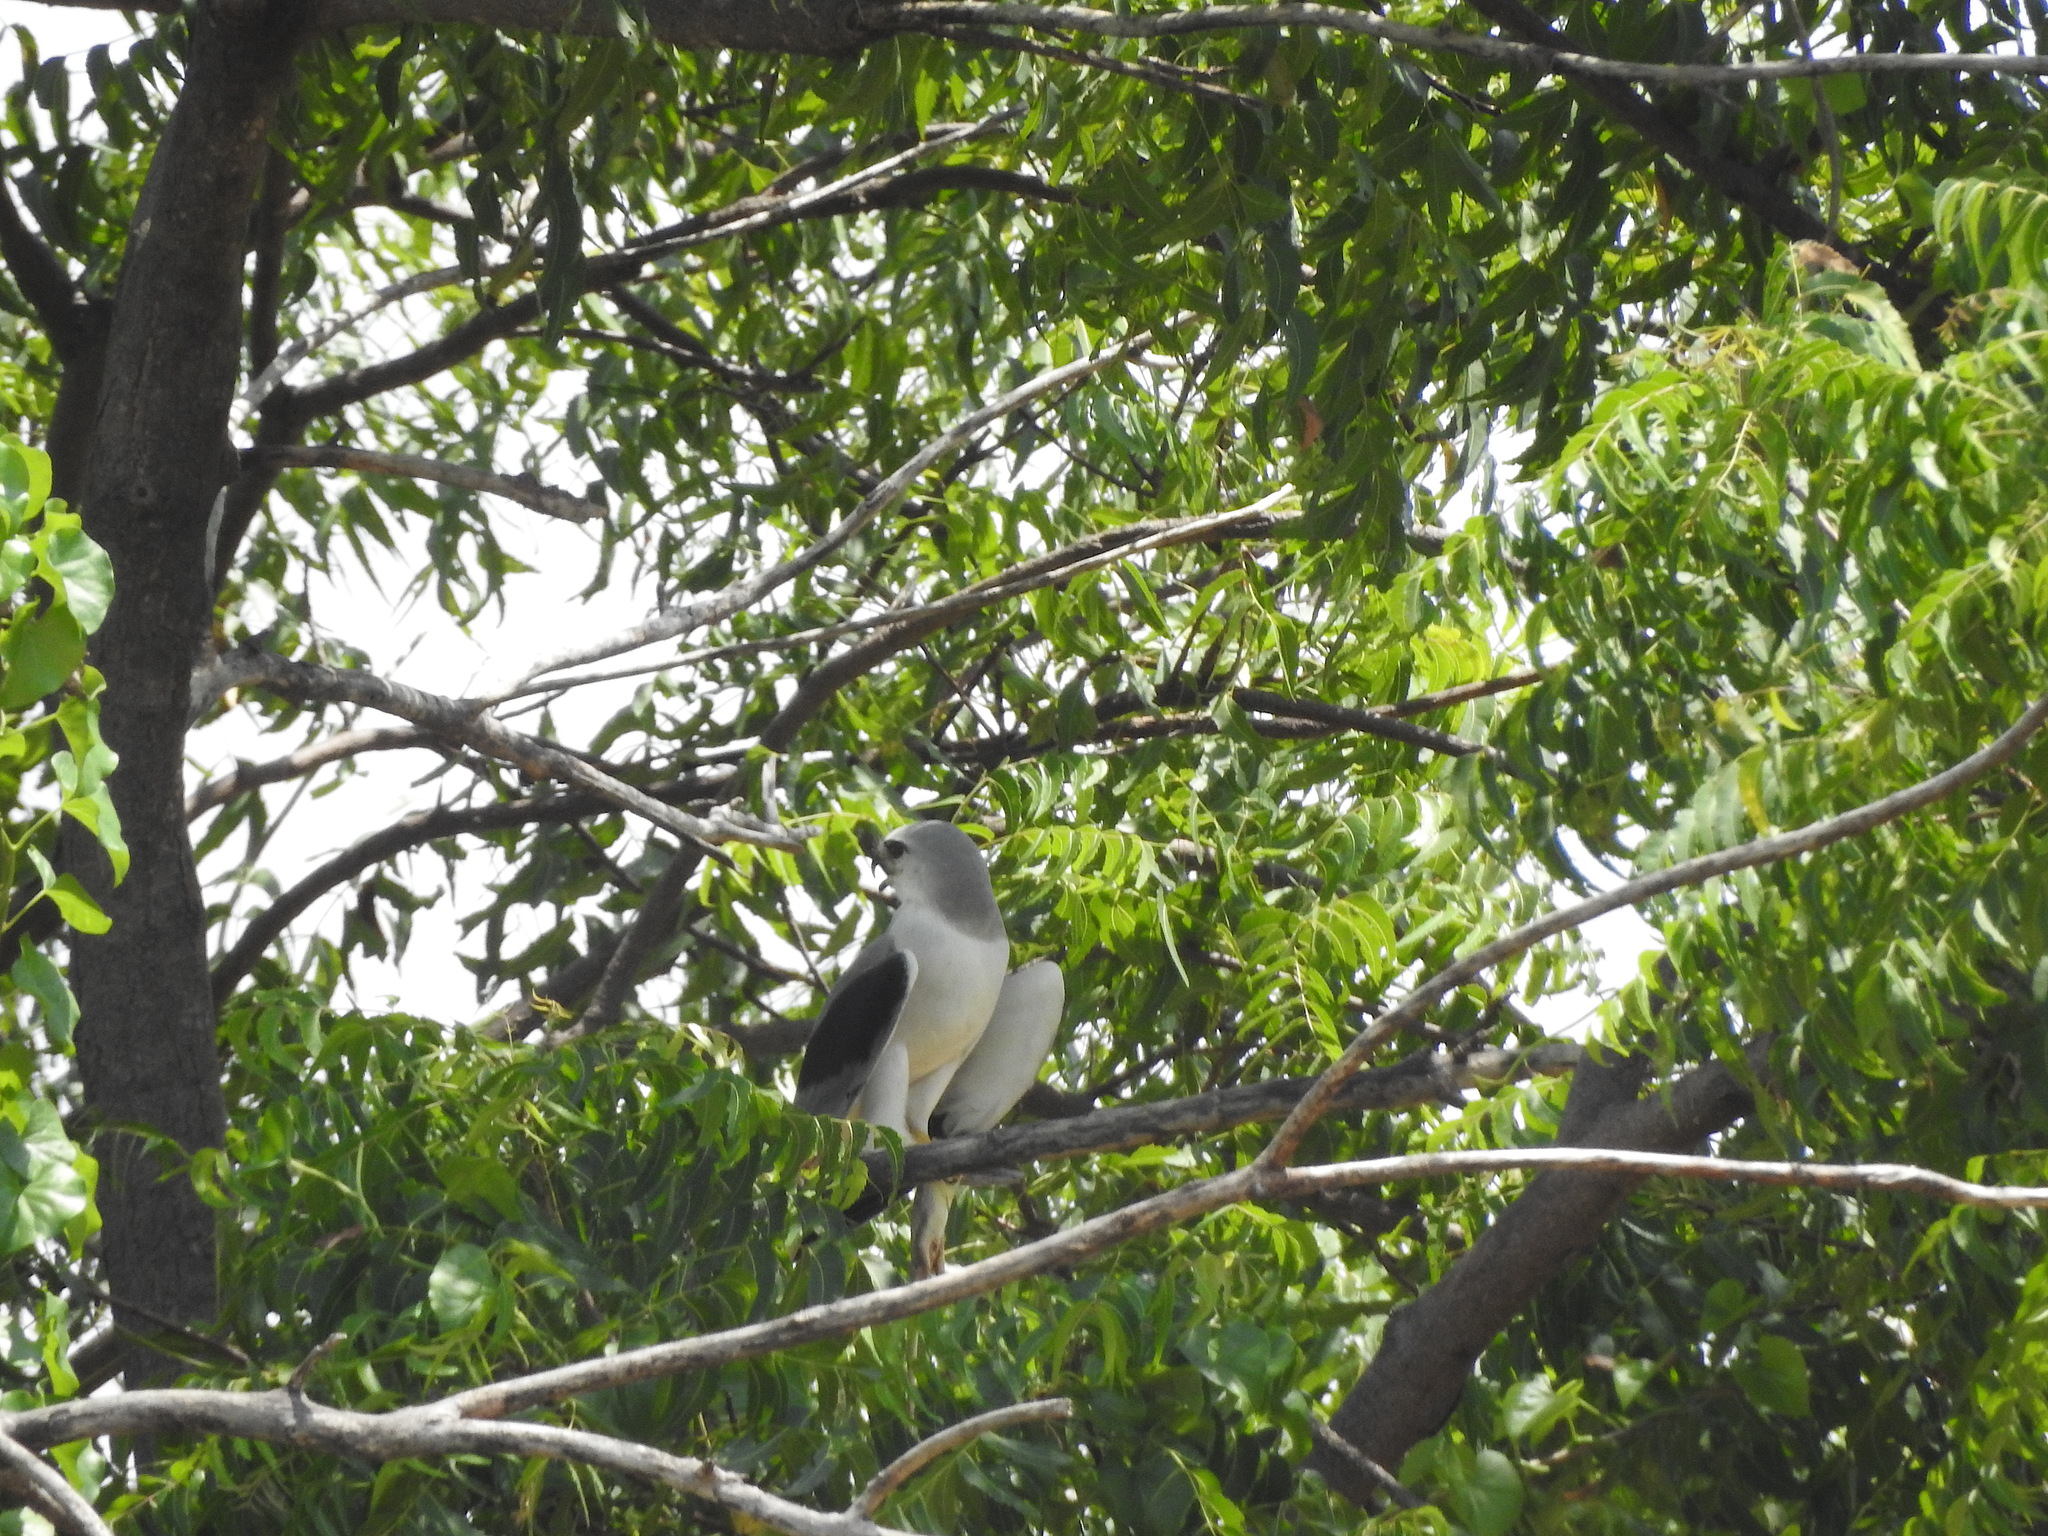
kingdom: Animalia
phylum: Chordata
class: Aves
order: Accipitriformes
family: Accipitridae
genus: Elanus
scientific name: Elanus caeruleus
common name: Black-winged kite
